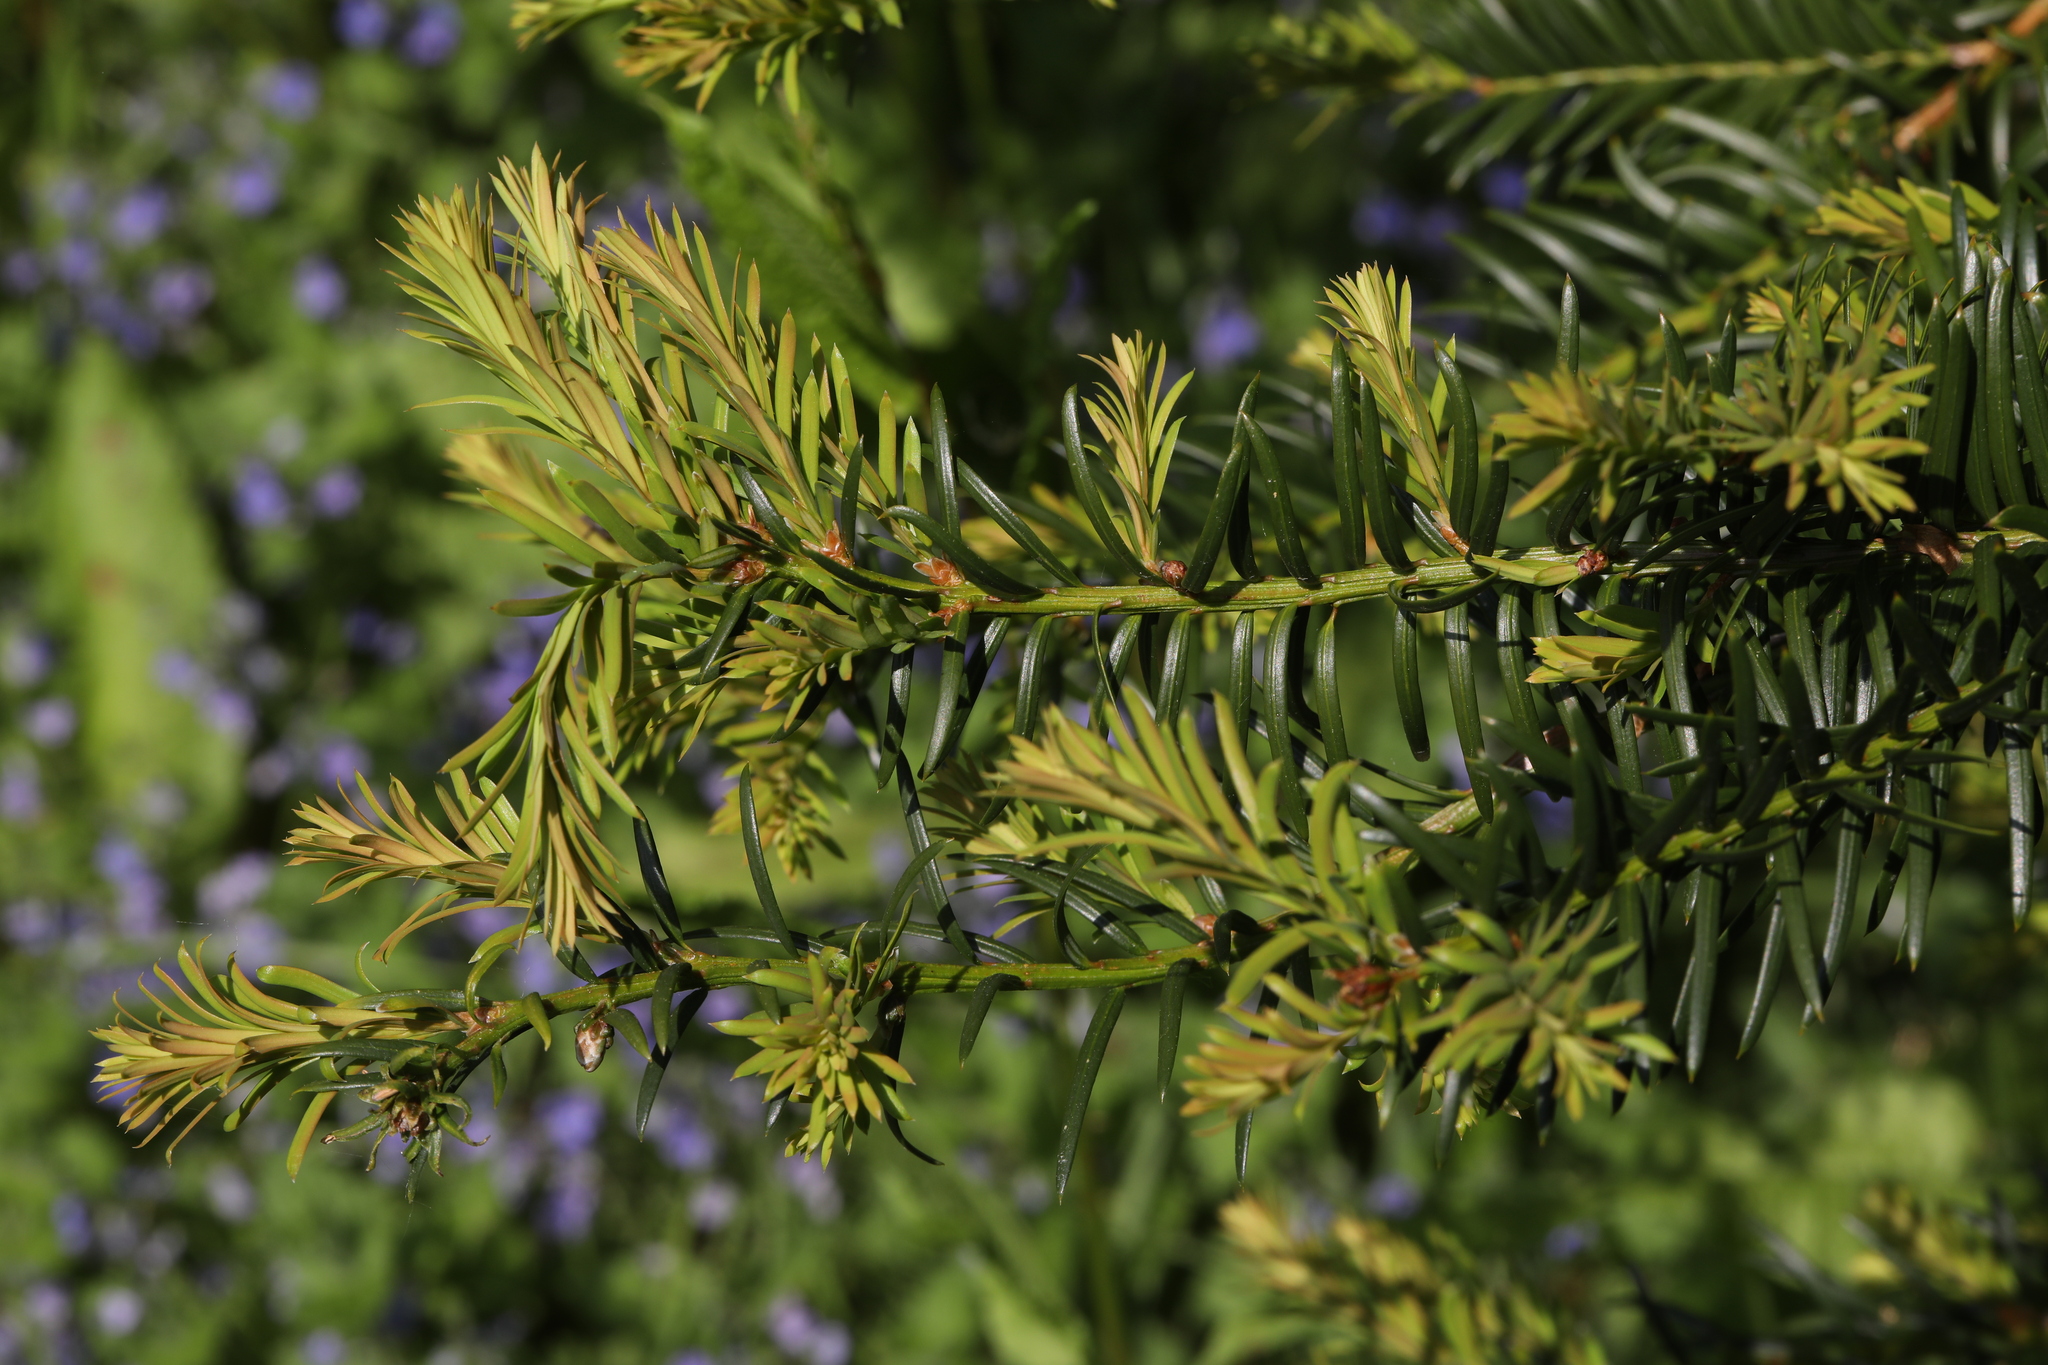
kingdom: Plantae
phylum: Tracheophyta
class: Pinopsida
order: Pinales
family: Taxaceae
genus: Taxus
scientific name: Taxus baccata
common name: Yew
